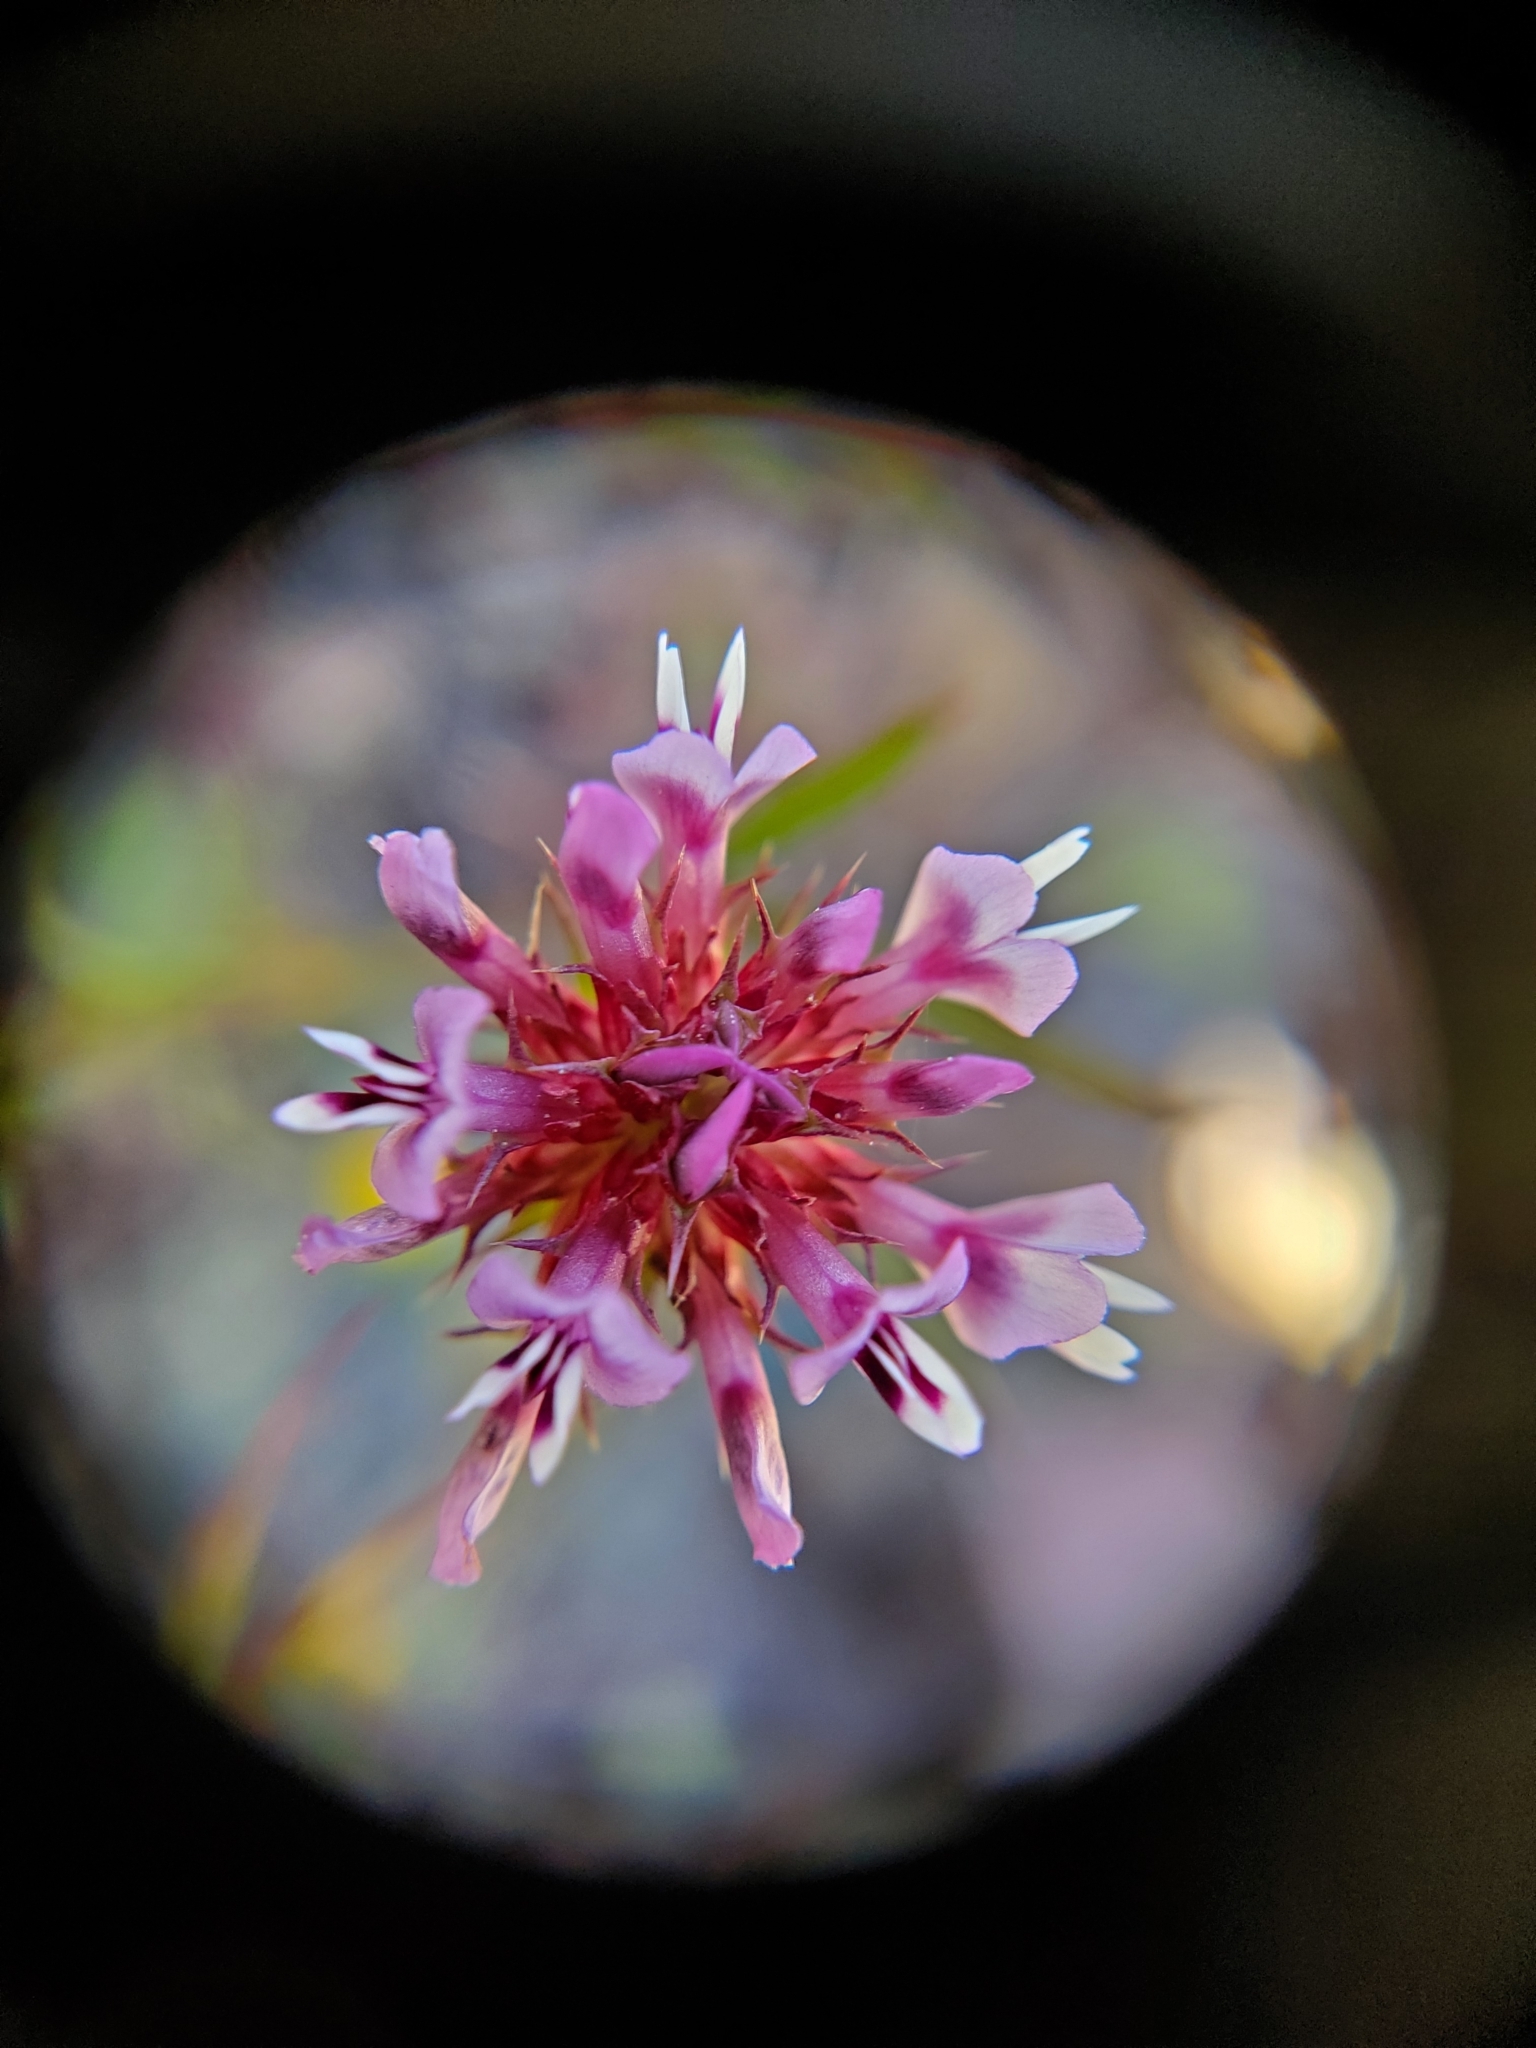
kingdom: Plantae
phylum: Tracheophyta
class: Magnoliopsida
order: Fabales
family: Fabaceae
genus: Trifolium
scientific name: Trifolium willdenovii
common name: Tomcat clover
